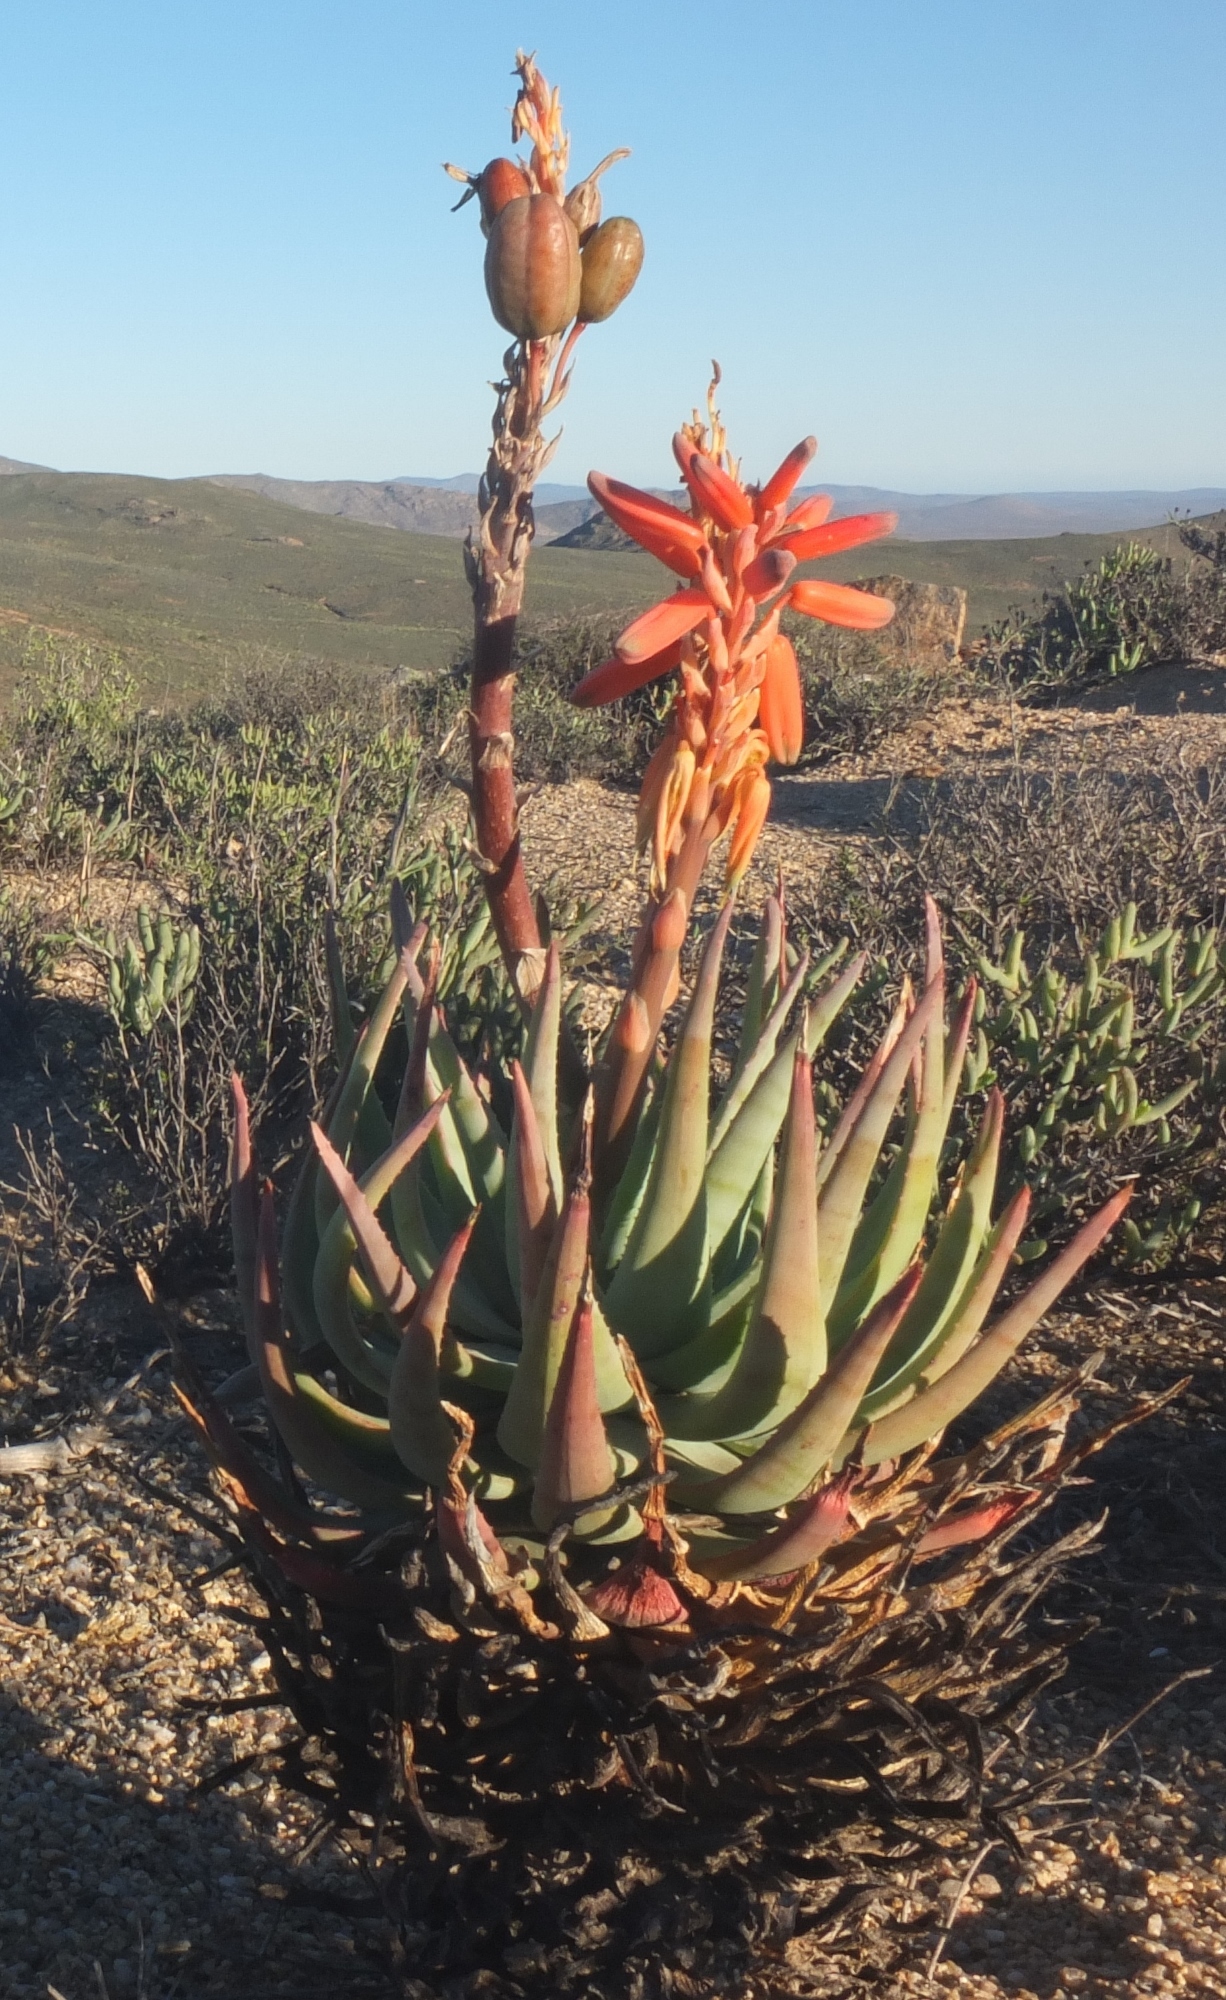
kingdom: Plantae
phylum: Tracheophyta
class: Liliopsida
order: Asparagales
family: Asphodelaceae
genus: Aloe
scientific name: Aloe krapohliana
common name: Krapohl's aloe
